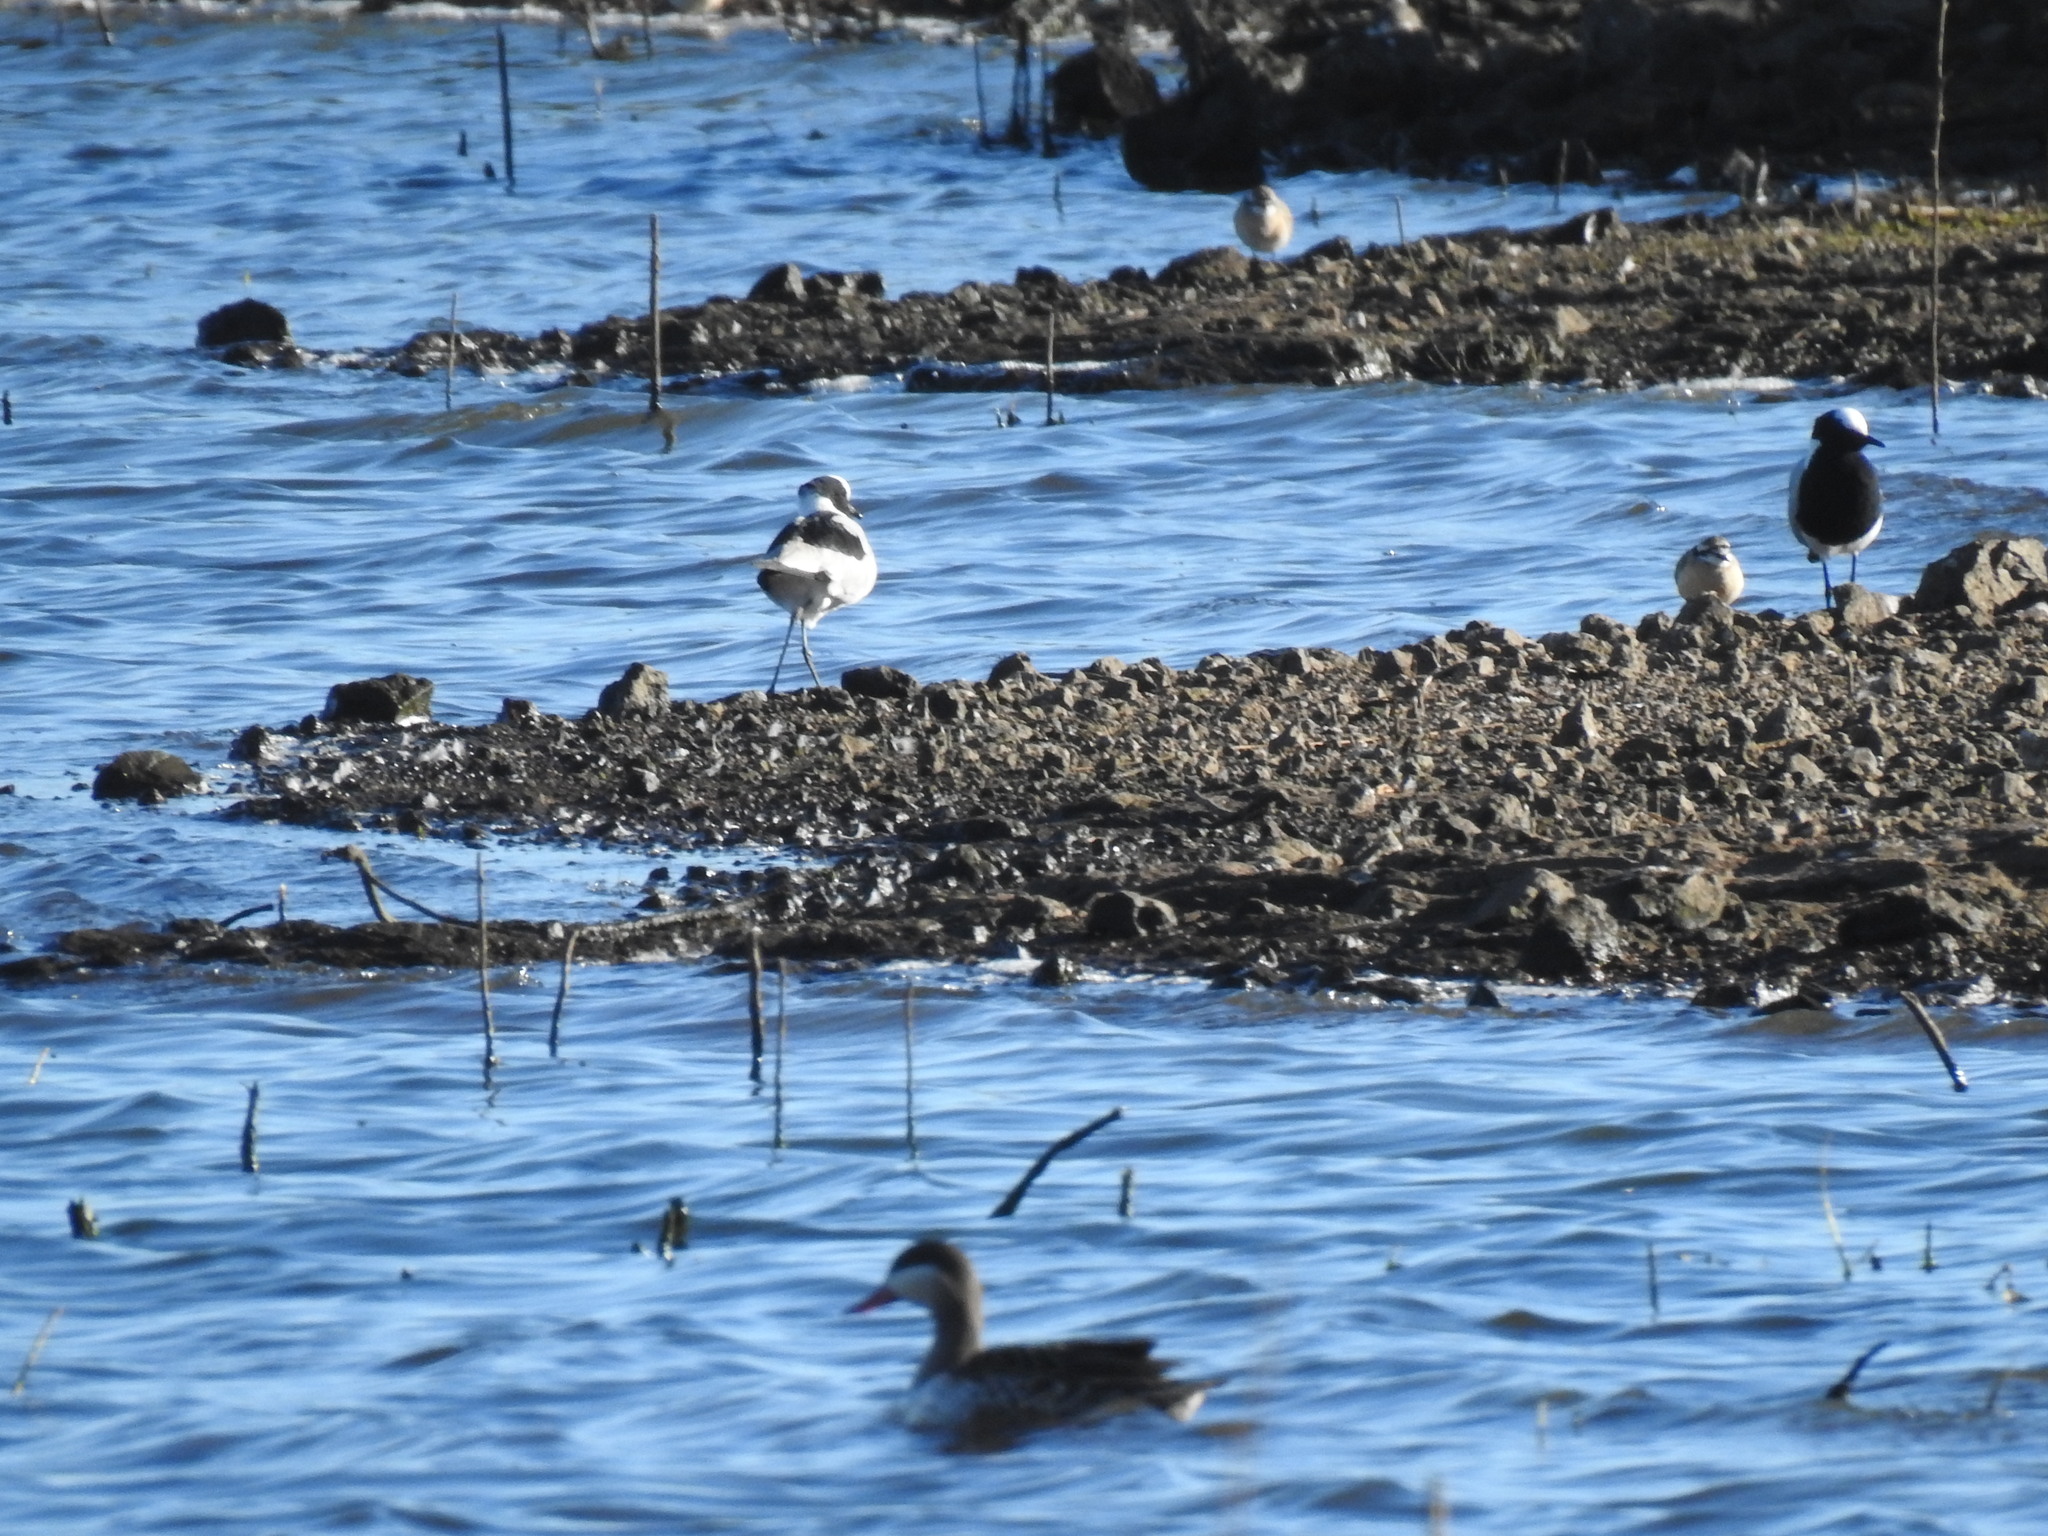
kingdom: Animalia
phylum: Chordata
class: Aves
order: Charadriiformes
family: Charadriidae
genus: Vanellus
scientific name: Vanellus armatus
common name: Blacksmith lapwing
